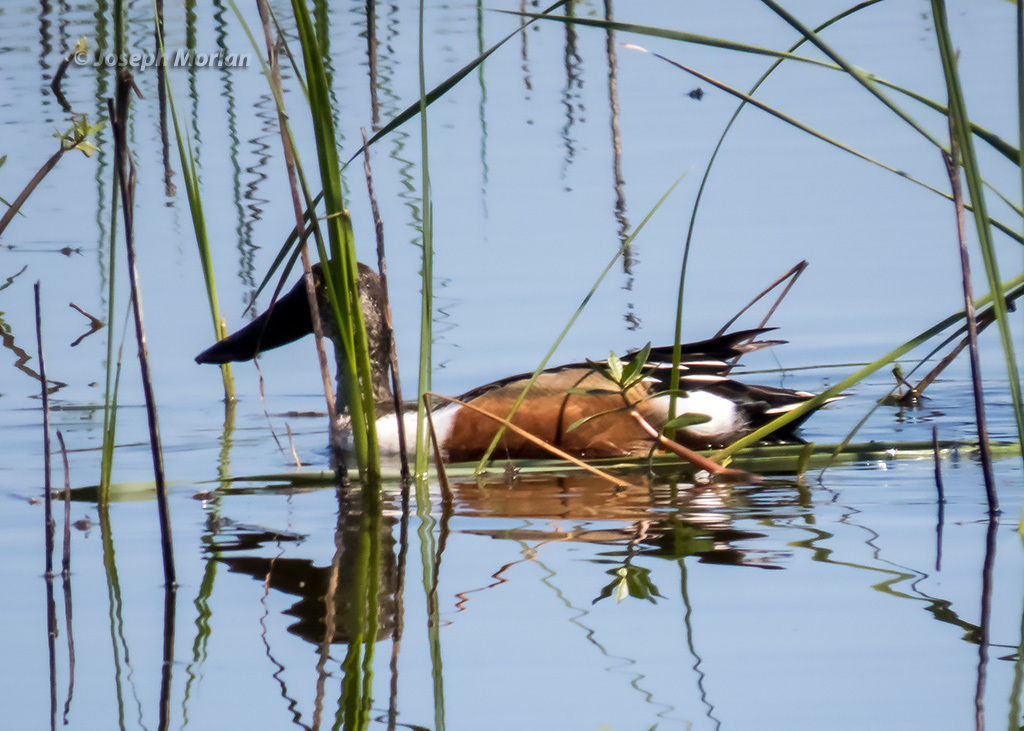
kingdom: Animalia
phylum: Chordata
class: Aves
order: Anseriformes
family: Anatidae
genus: Spatula
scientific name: Spatula clypeata
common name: Northern shoveler
